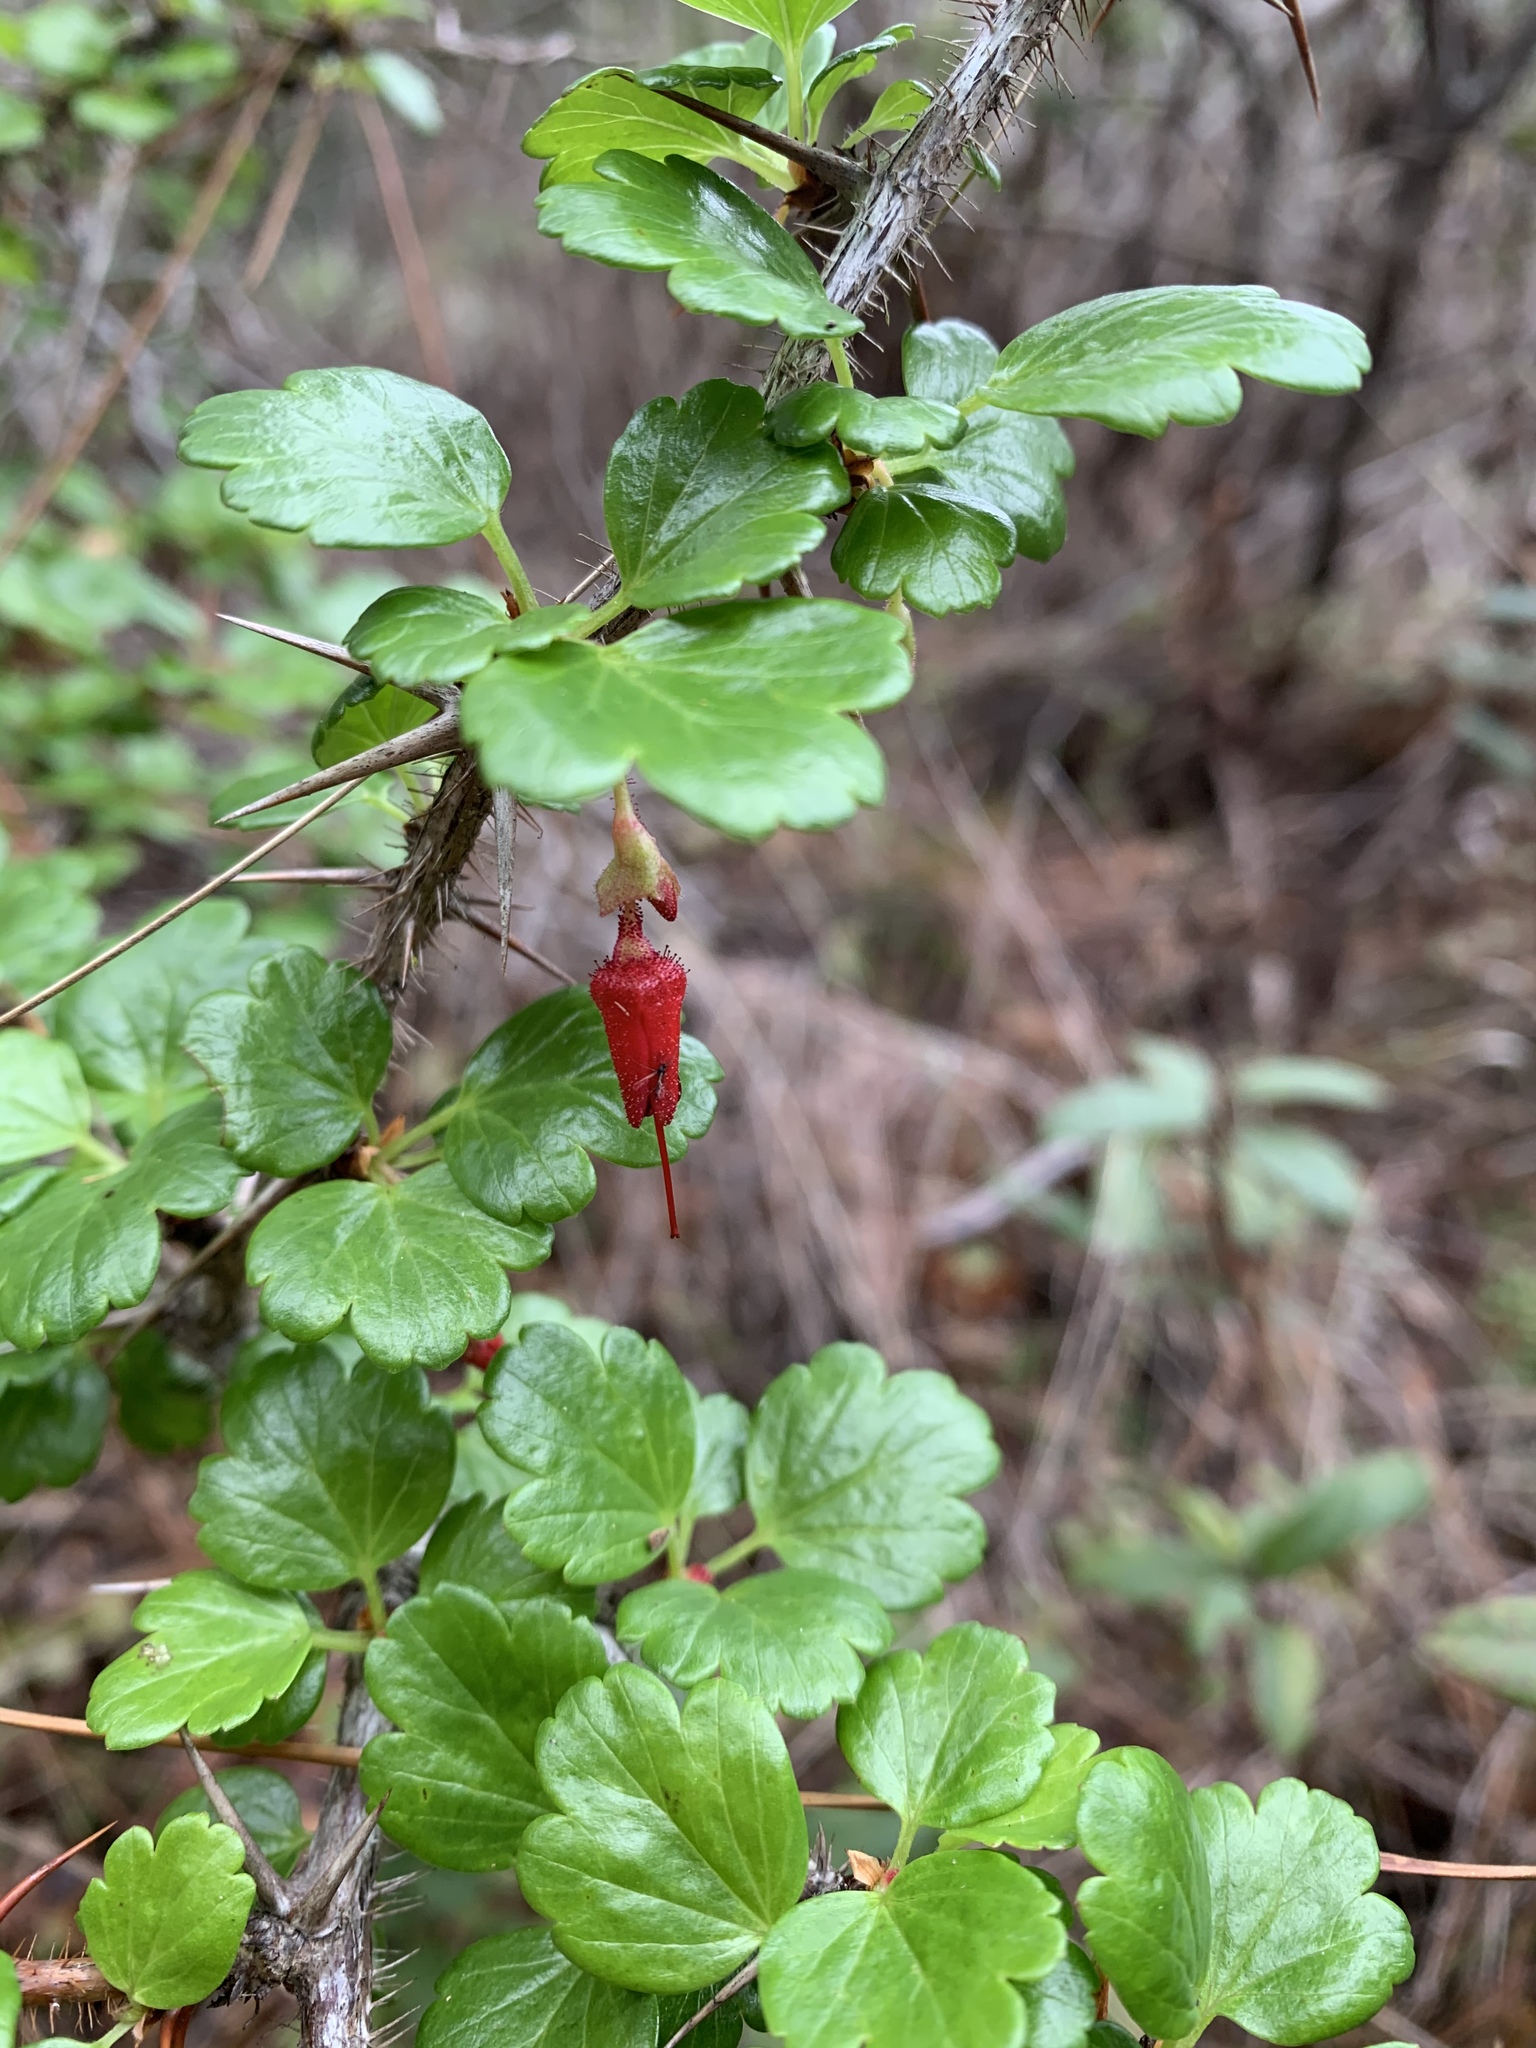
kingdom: Plantae
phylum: Tracheophyta
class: Magnoliopsida
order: Saxifragales
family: Grossulariaceae
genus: Ribes
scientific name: Ribes speciosum
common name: Fuchsia-flower gooseberry
